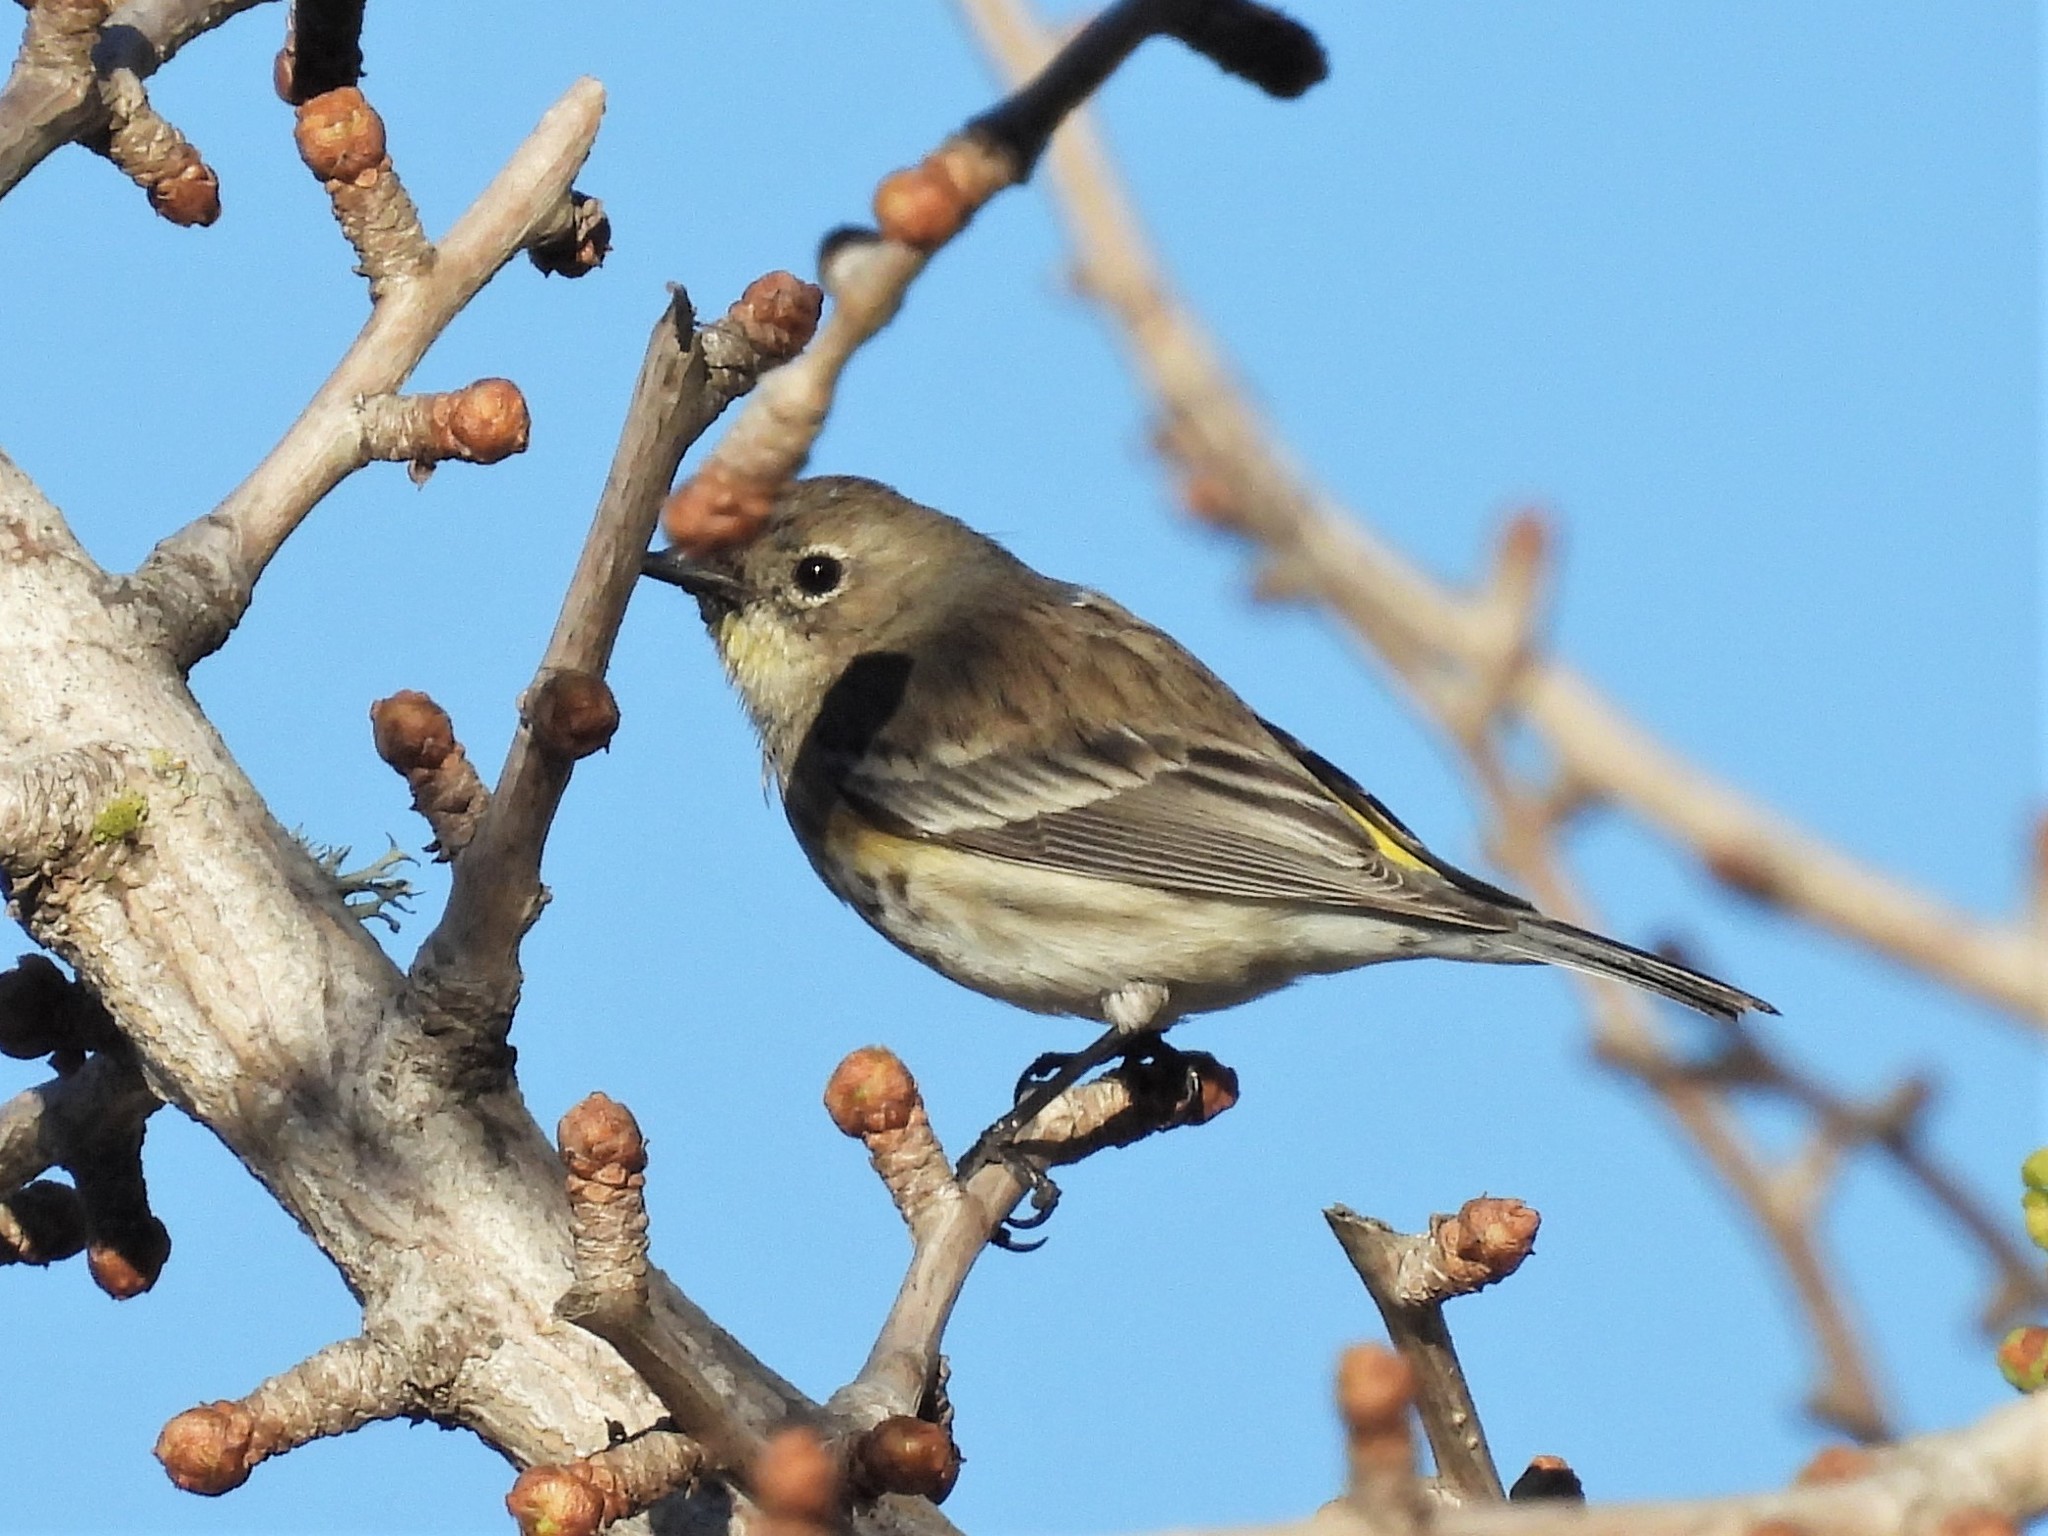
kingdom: Animalia
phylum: Chordata
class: Aves
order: Passeriformes
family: Parulidae
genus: Setophaga
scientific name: Setophaga coronata
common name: Myrtle warbler
